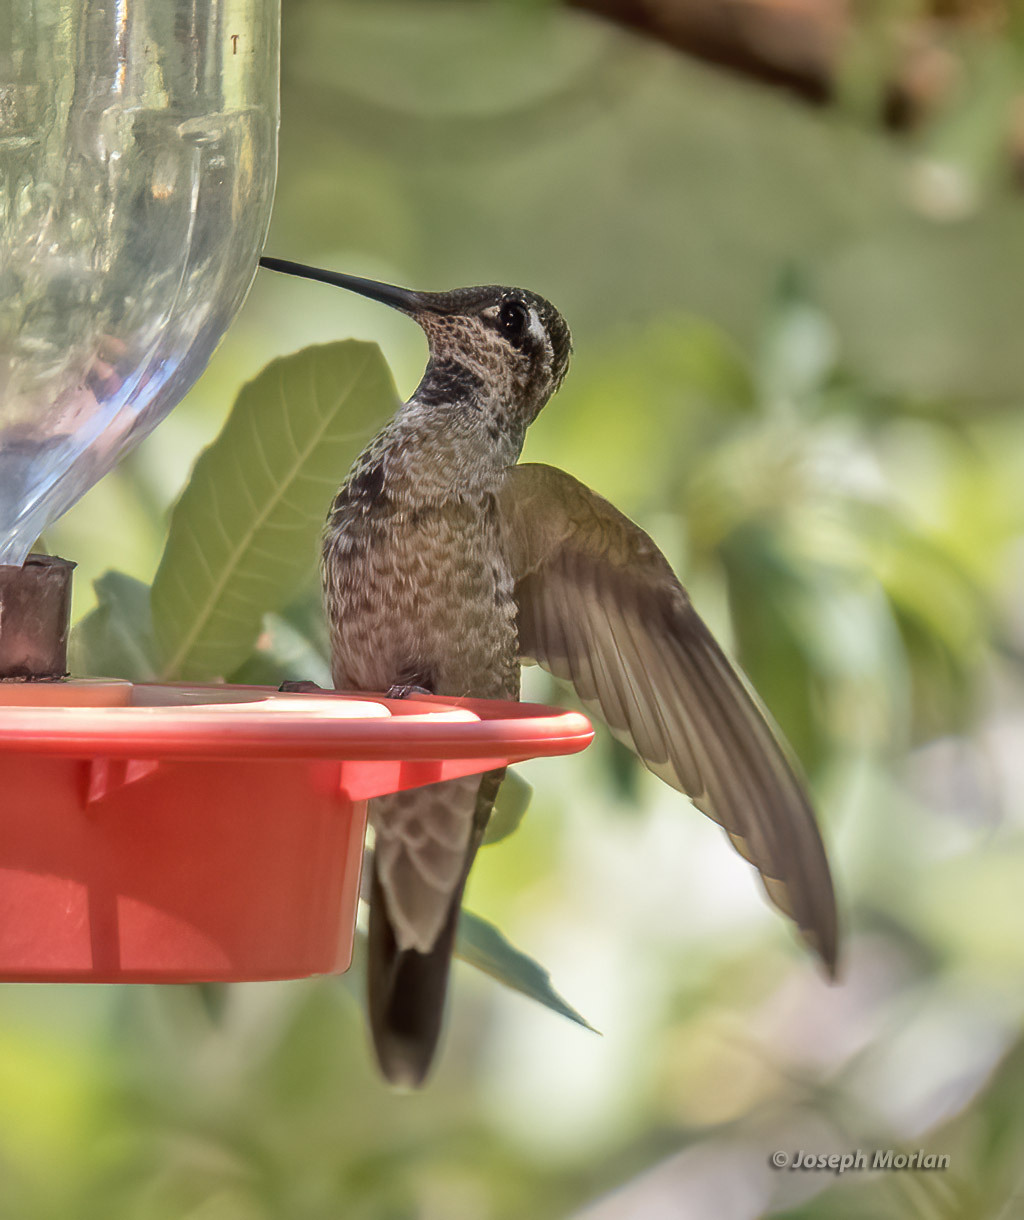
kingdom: Animalia
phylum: Chordata
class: Aves
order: Apodiformes
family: Trochilidae
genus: Eugenes
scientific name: Eugenes fulgens
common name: Magnificent hummingbird
